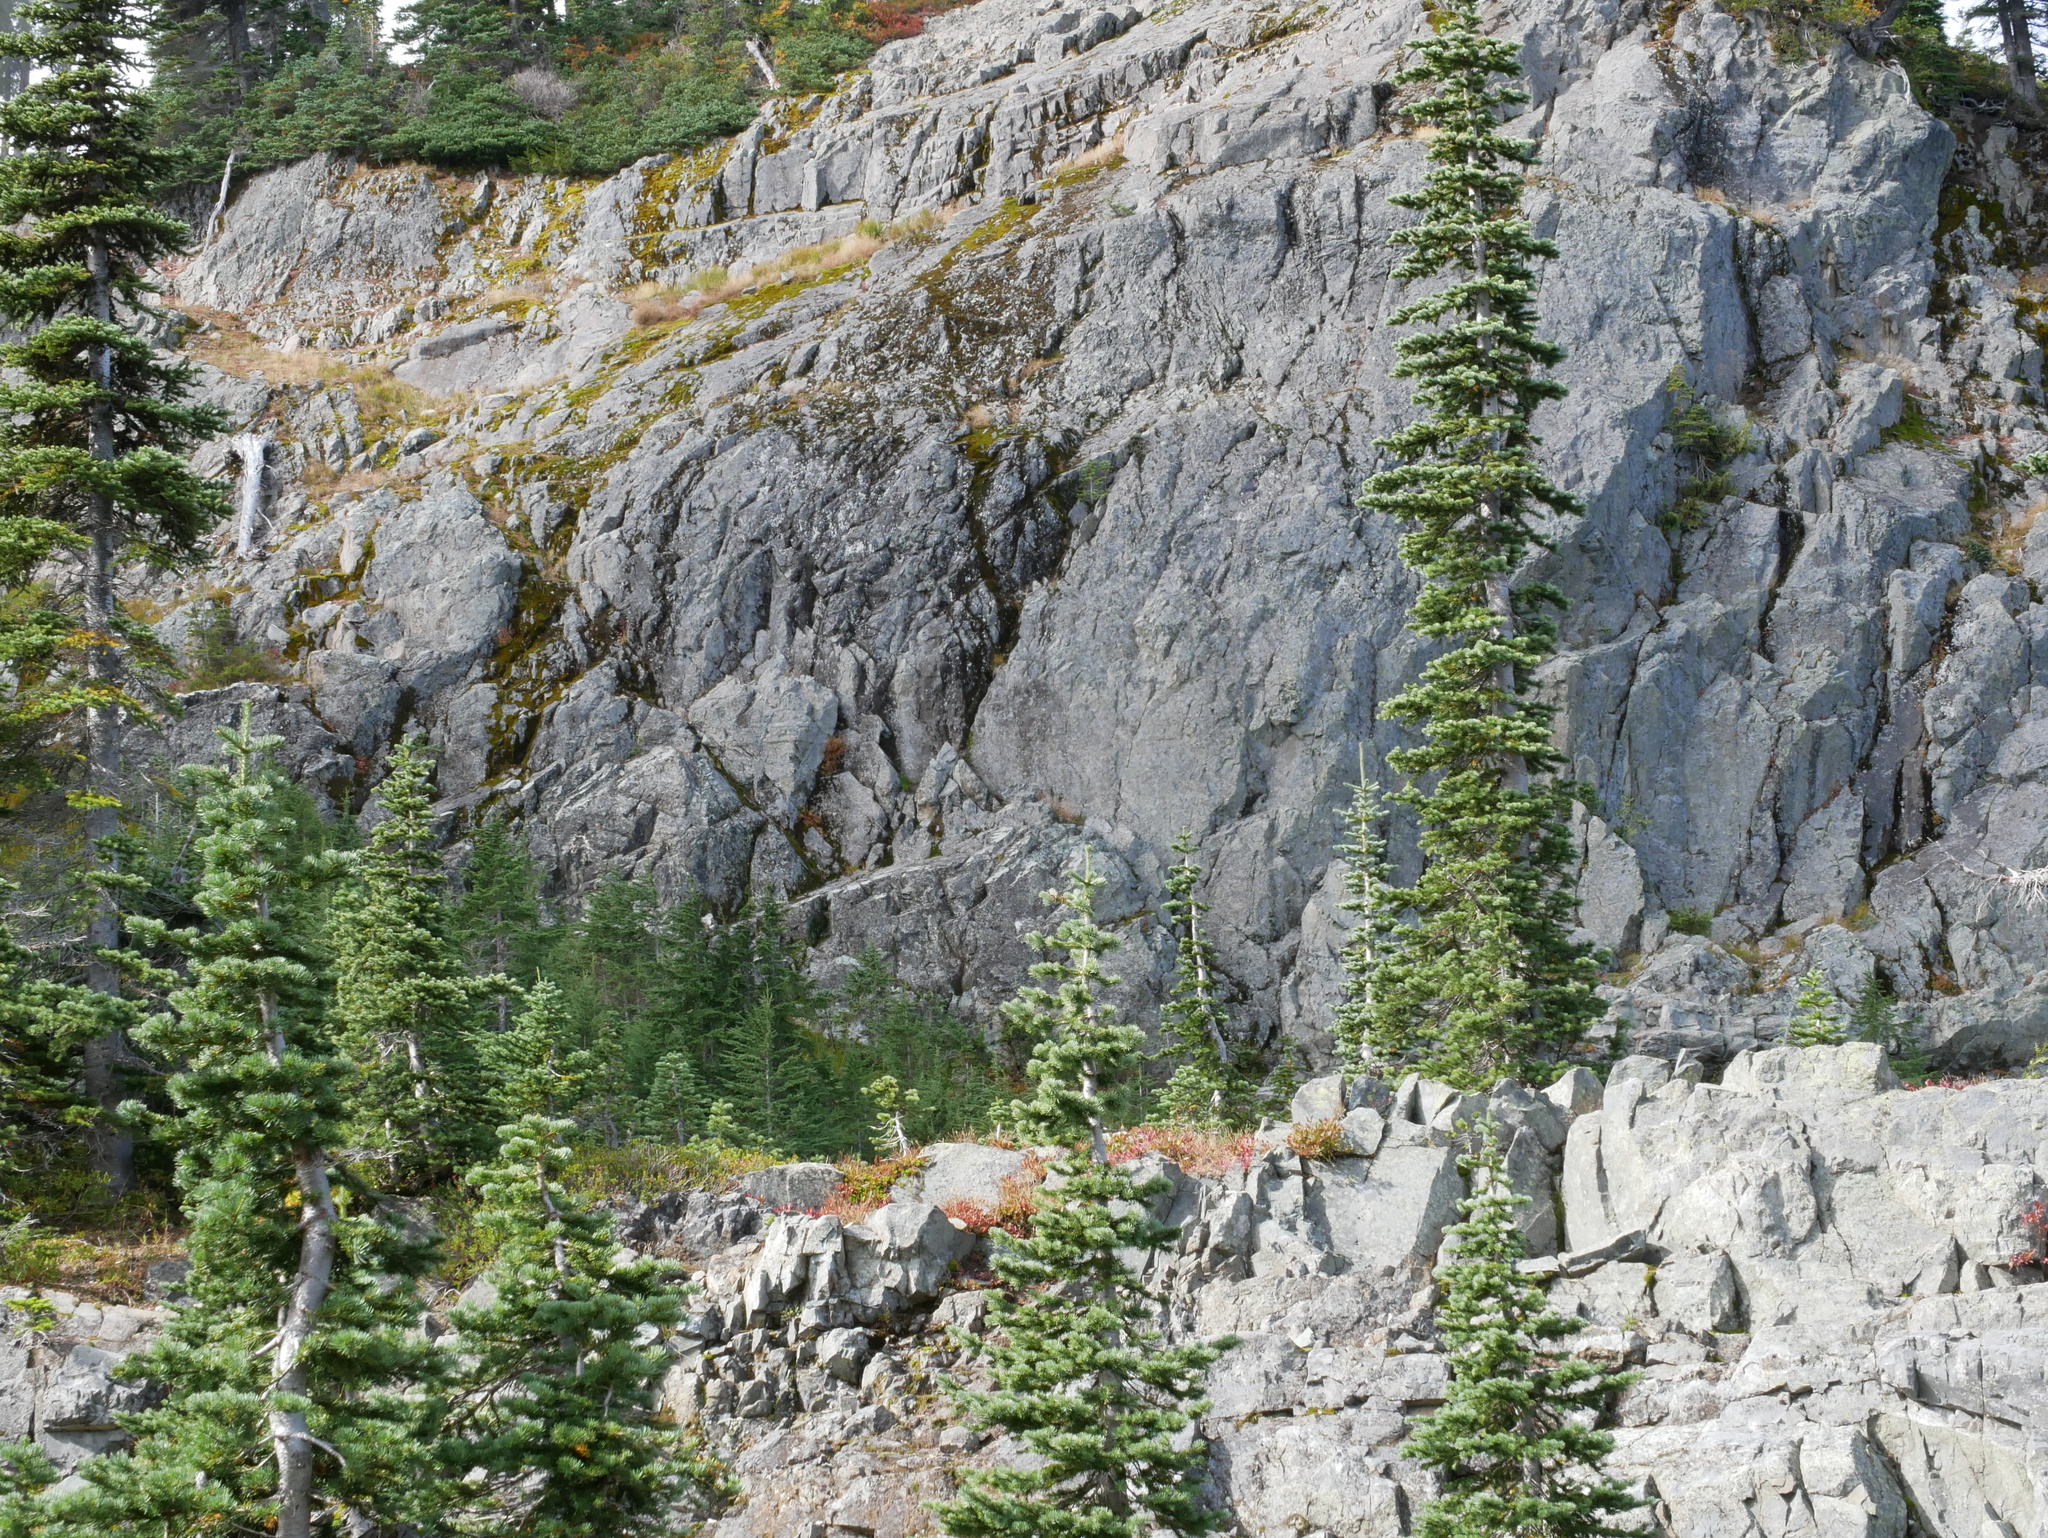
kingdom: Plantae
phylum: Tracheophyta
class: Pinopsida
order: Pinales
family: Pinaceae
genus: Abies
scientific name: Abies lasiocarpa
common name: Subalpine fir
